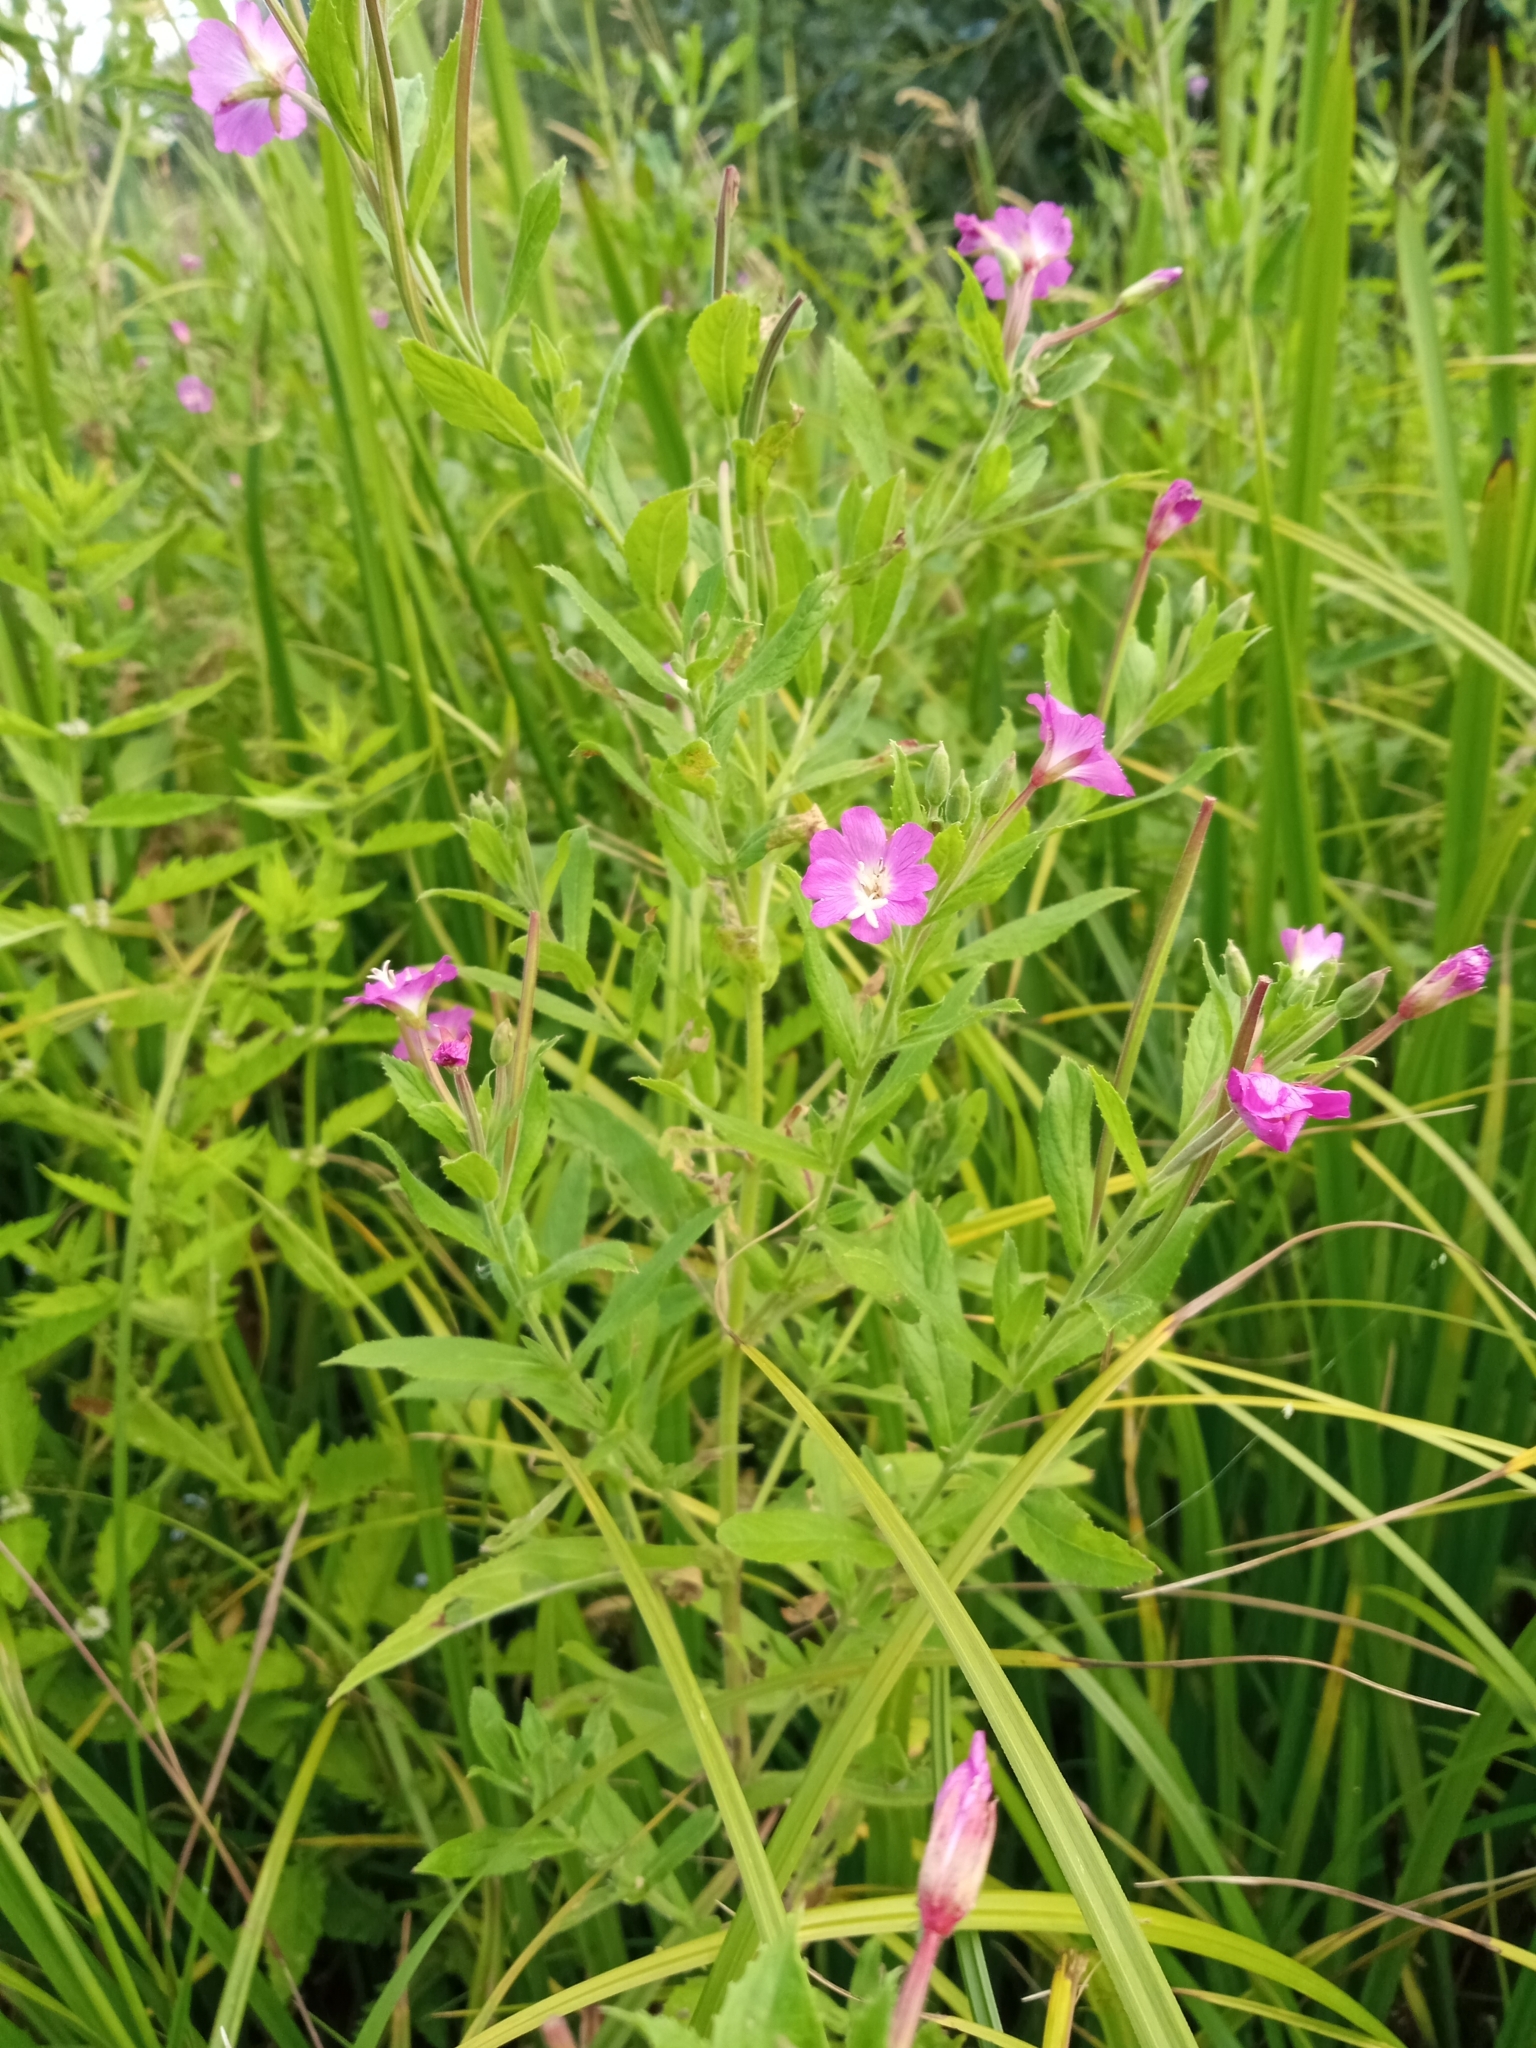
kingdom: Plantae
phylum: Tracheophyta
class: Magnoliopsida
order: Myrtales
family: Onagraceae
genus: Epilobium
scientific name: Epilobium hirsutum
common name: Great willowherb
